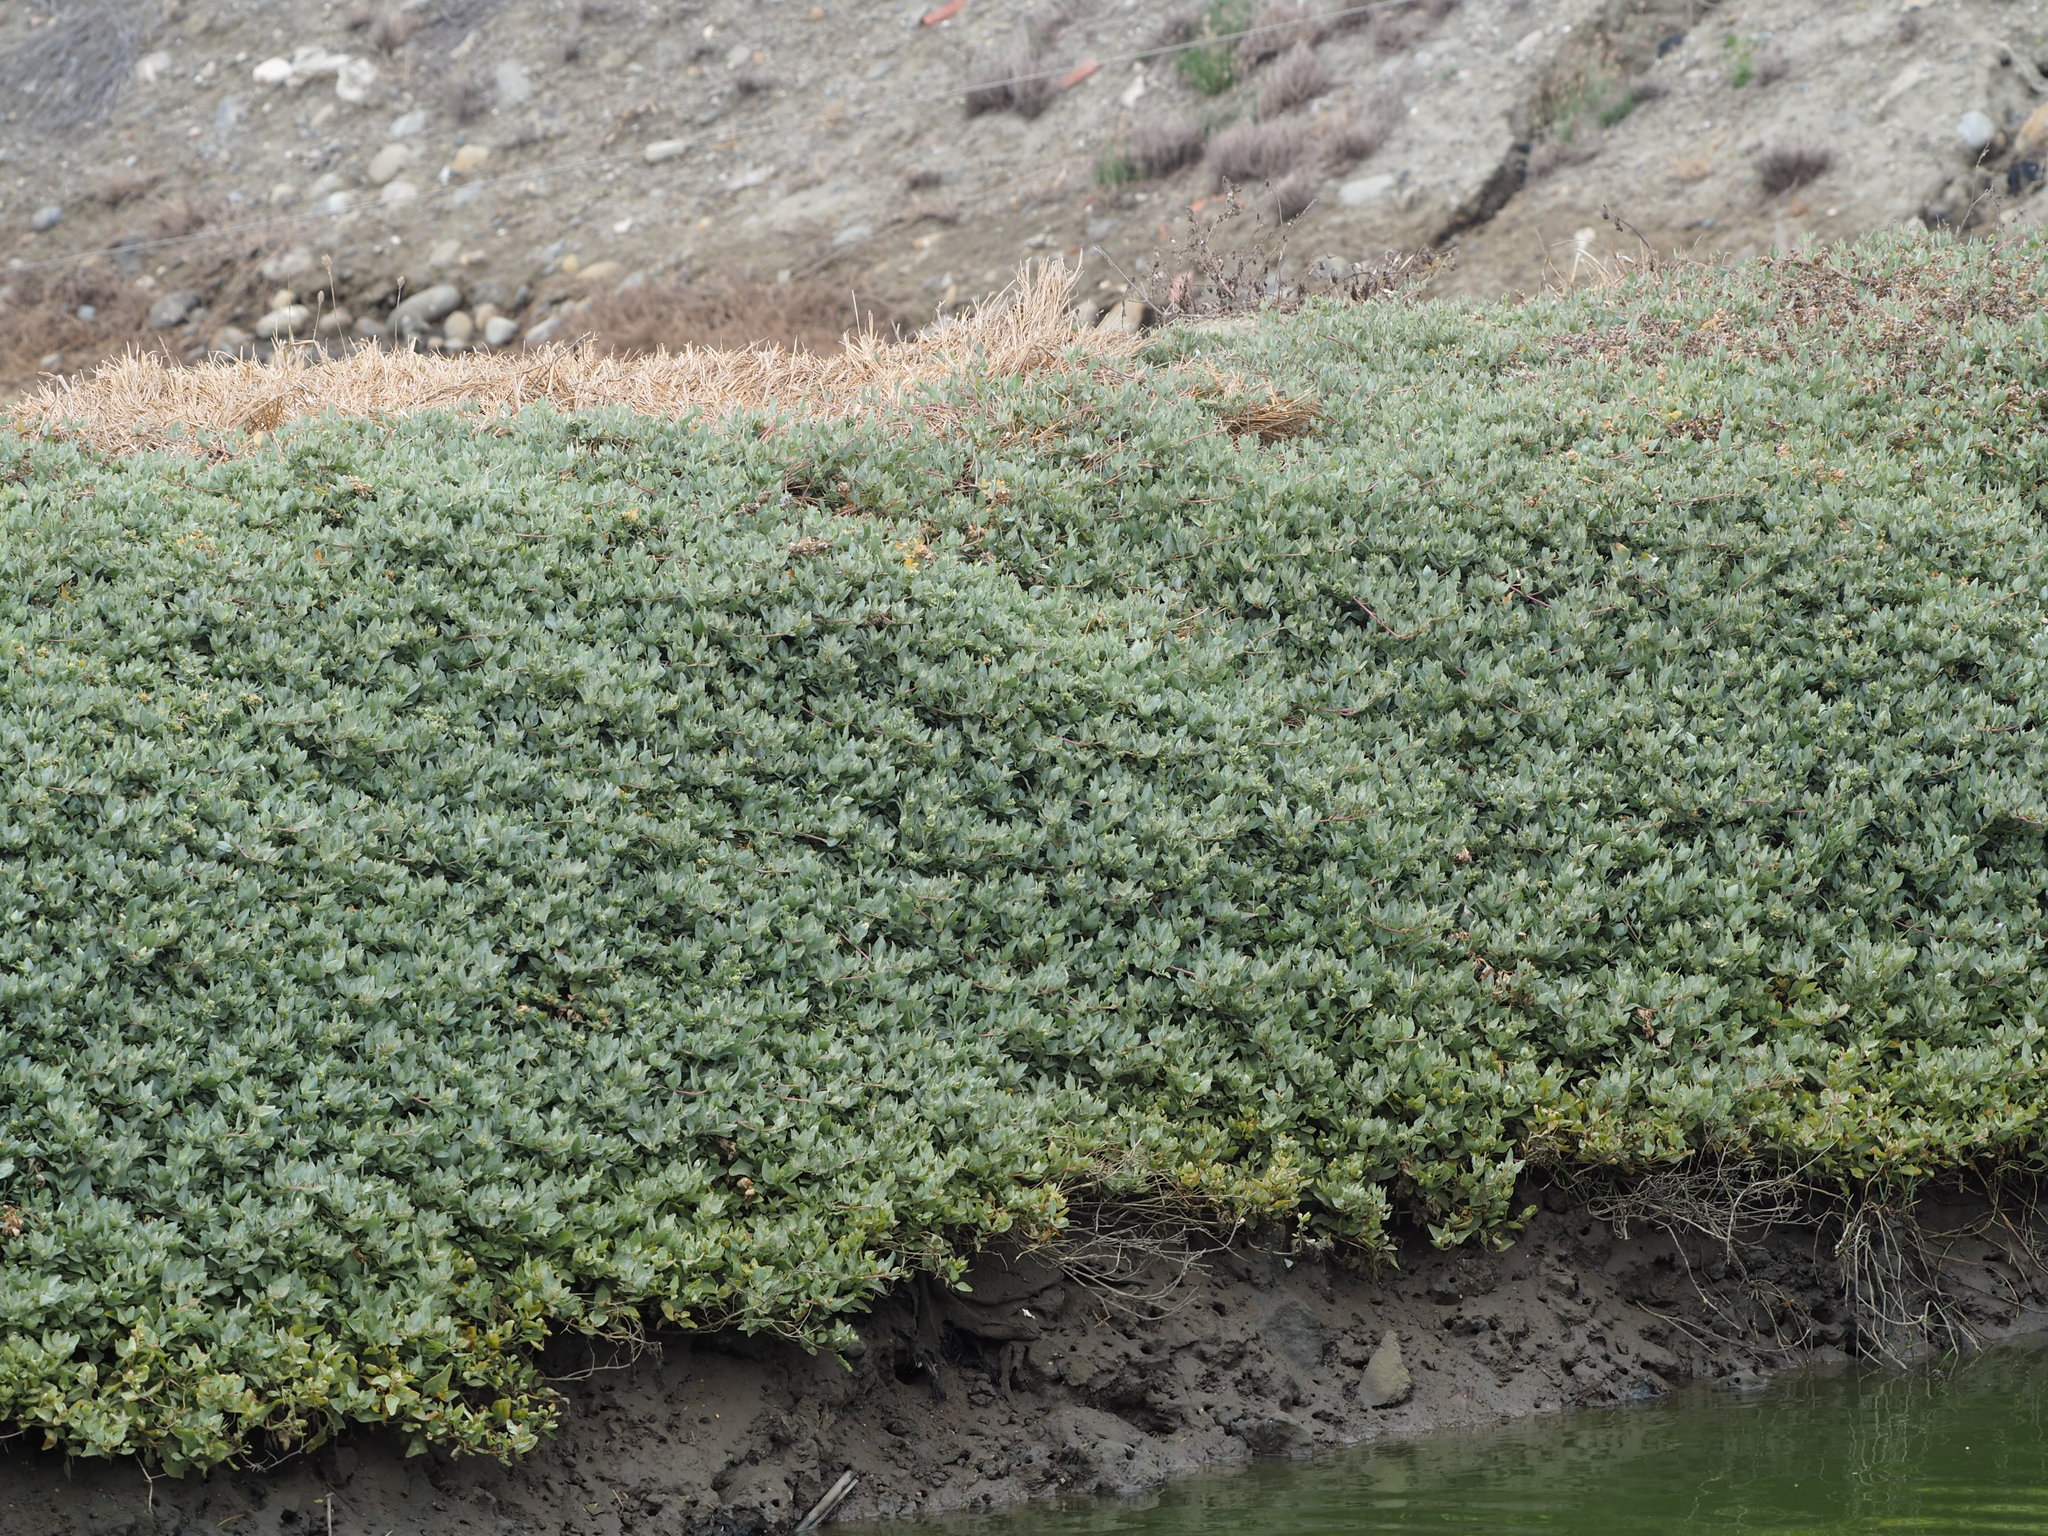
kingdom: Plantae
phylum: Tracheophyta
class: Magnoliopsida
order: Caryophyllales
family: Amaranthaceae
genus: Atriplex
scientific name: Atriplex maximowicziana
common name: Maximowicz's saltbush
